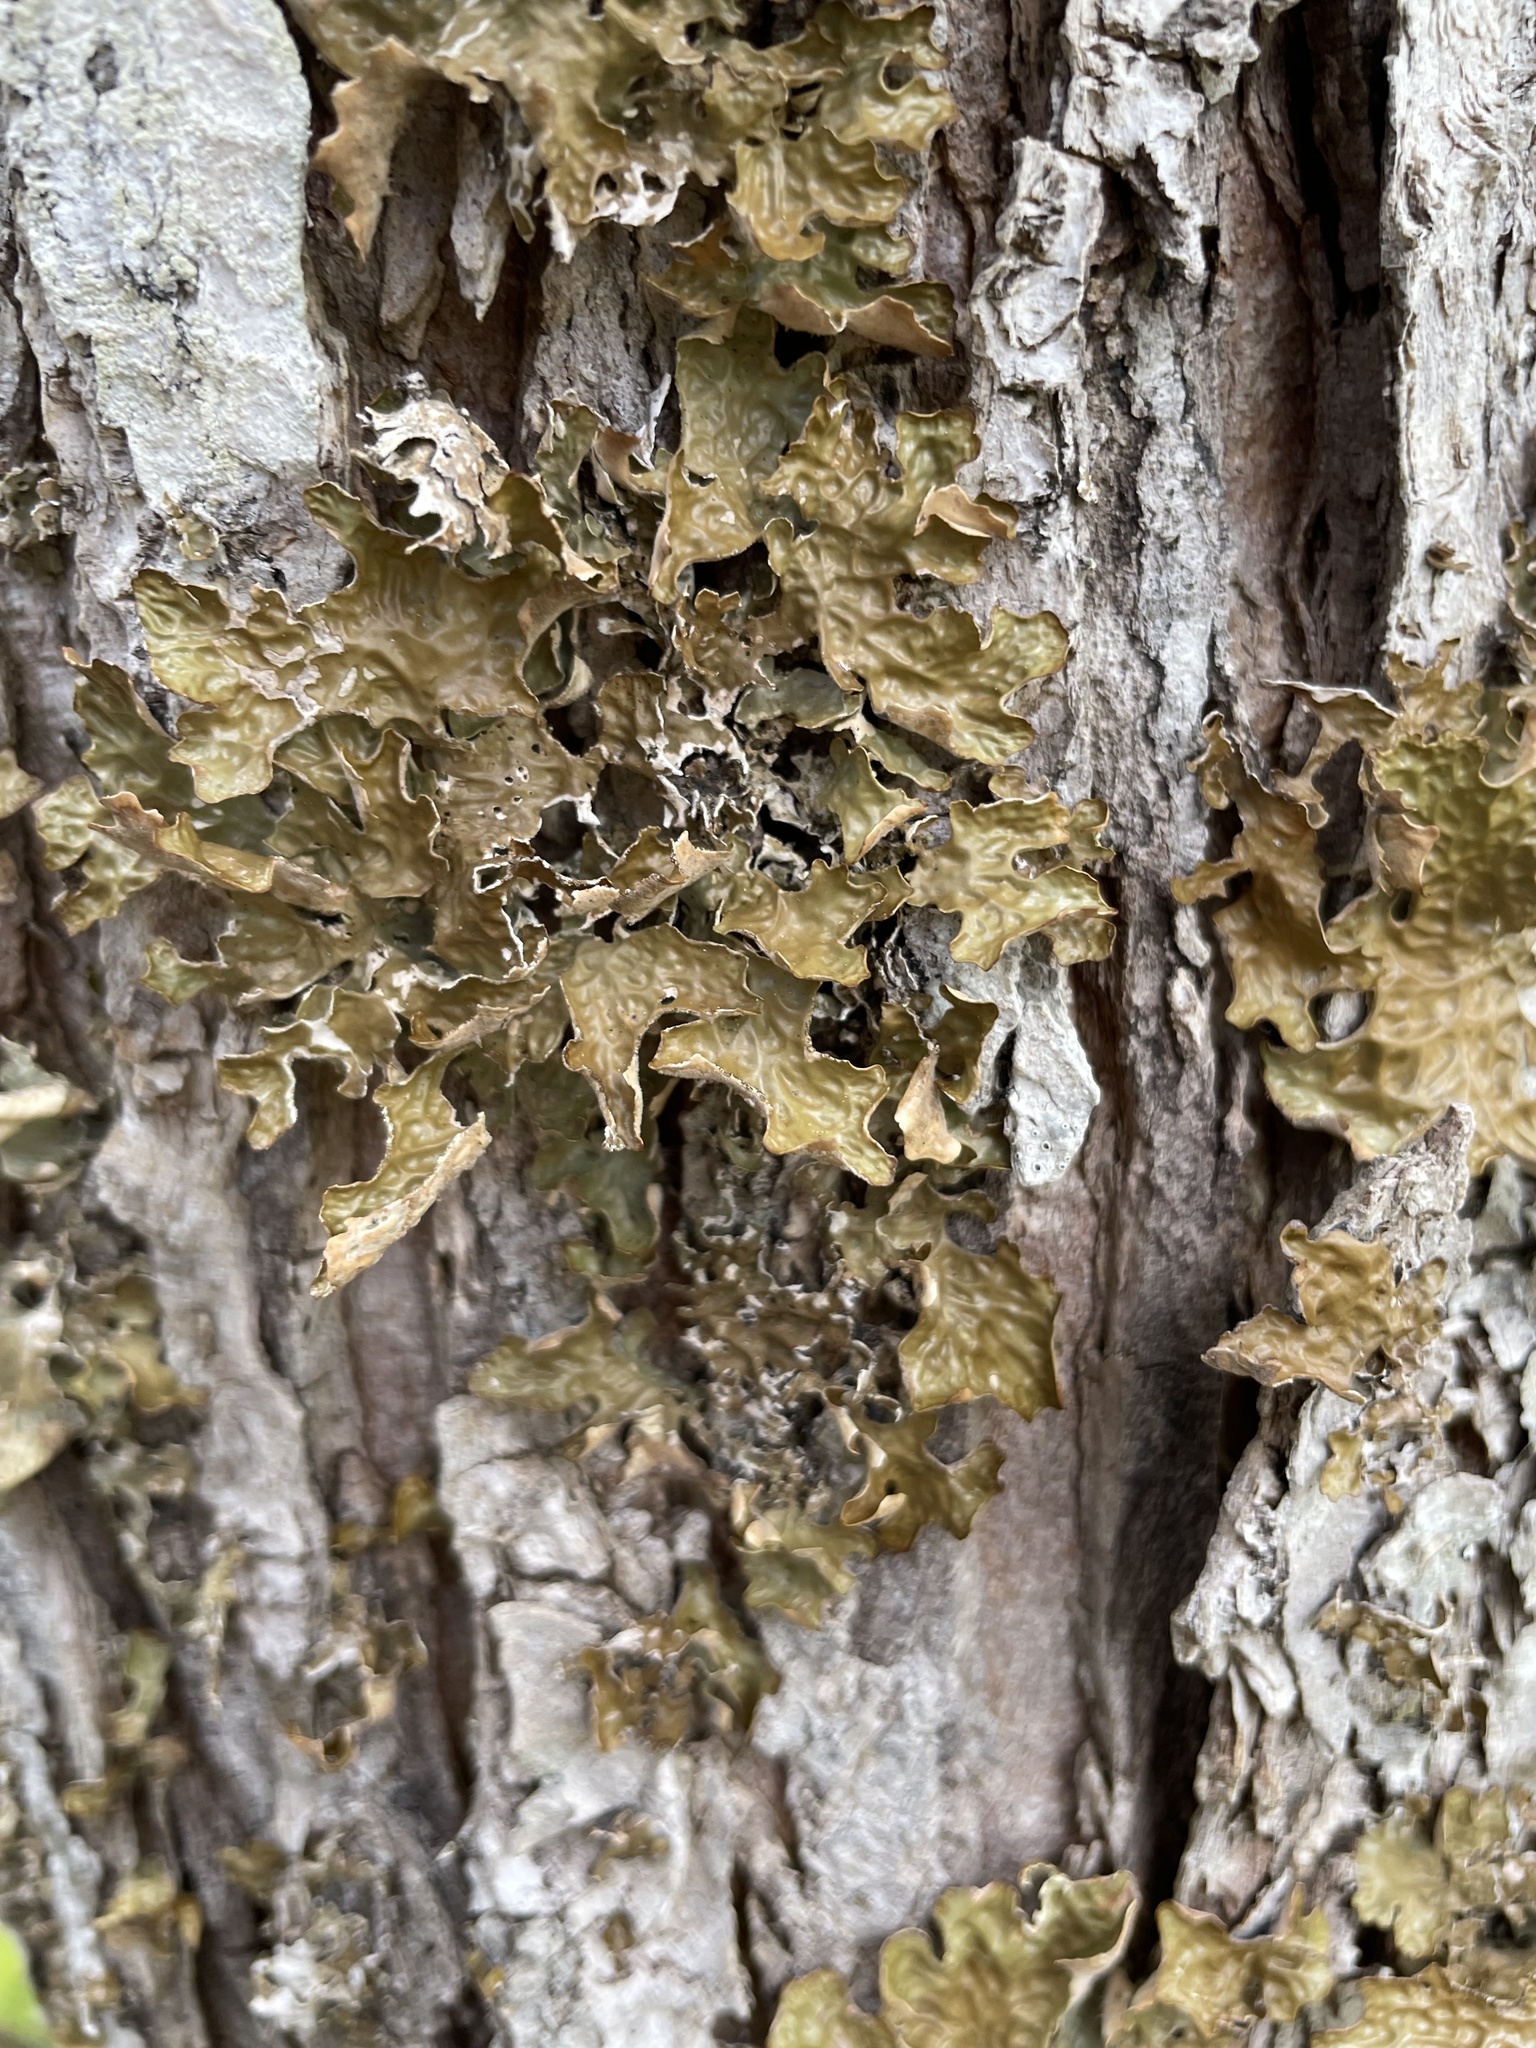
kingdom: Fungi
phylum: Ascomycota
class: Lecanoromycetes
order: Peltigerales
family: Lobariaceae
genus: Lobaria
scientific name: Lobaria pulmonaria
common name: Lungwort
